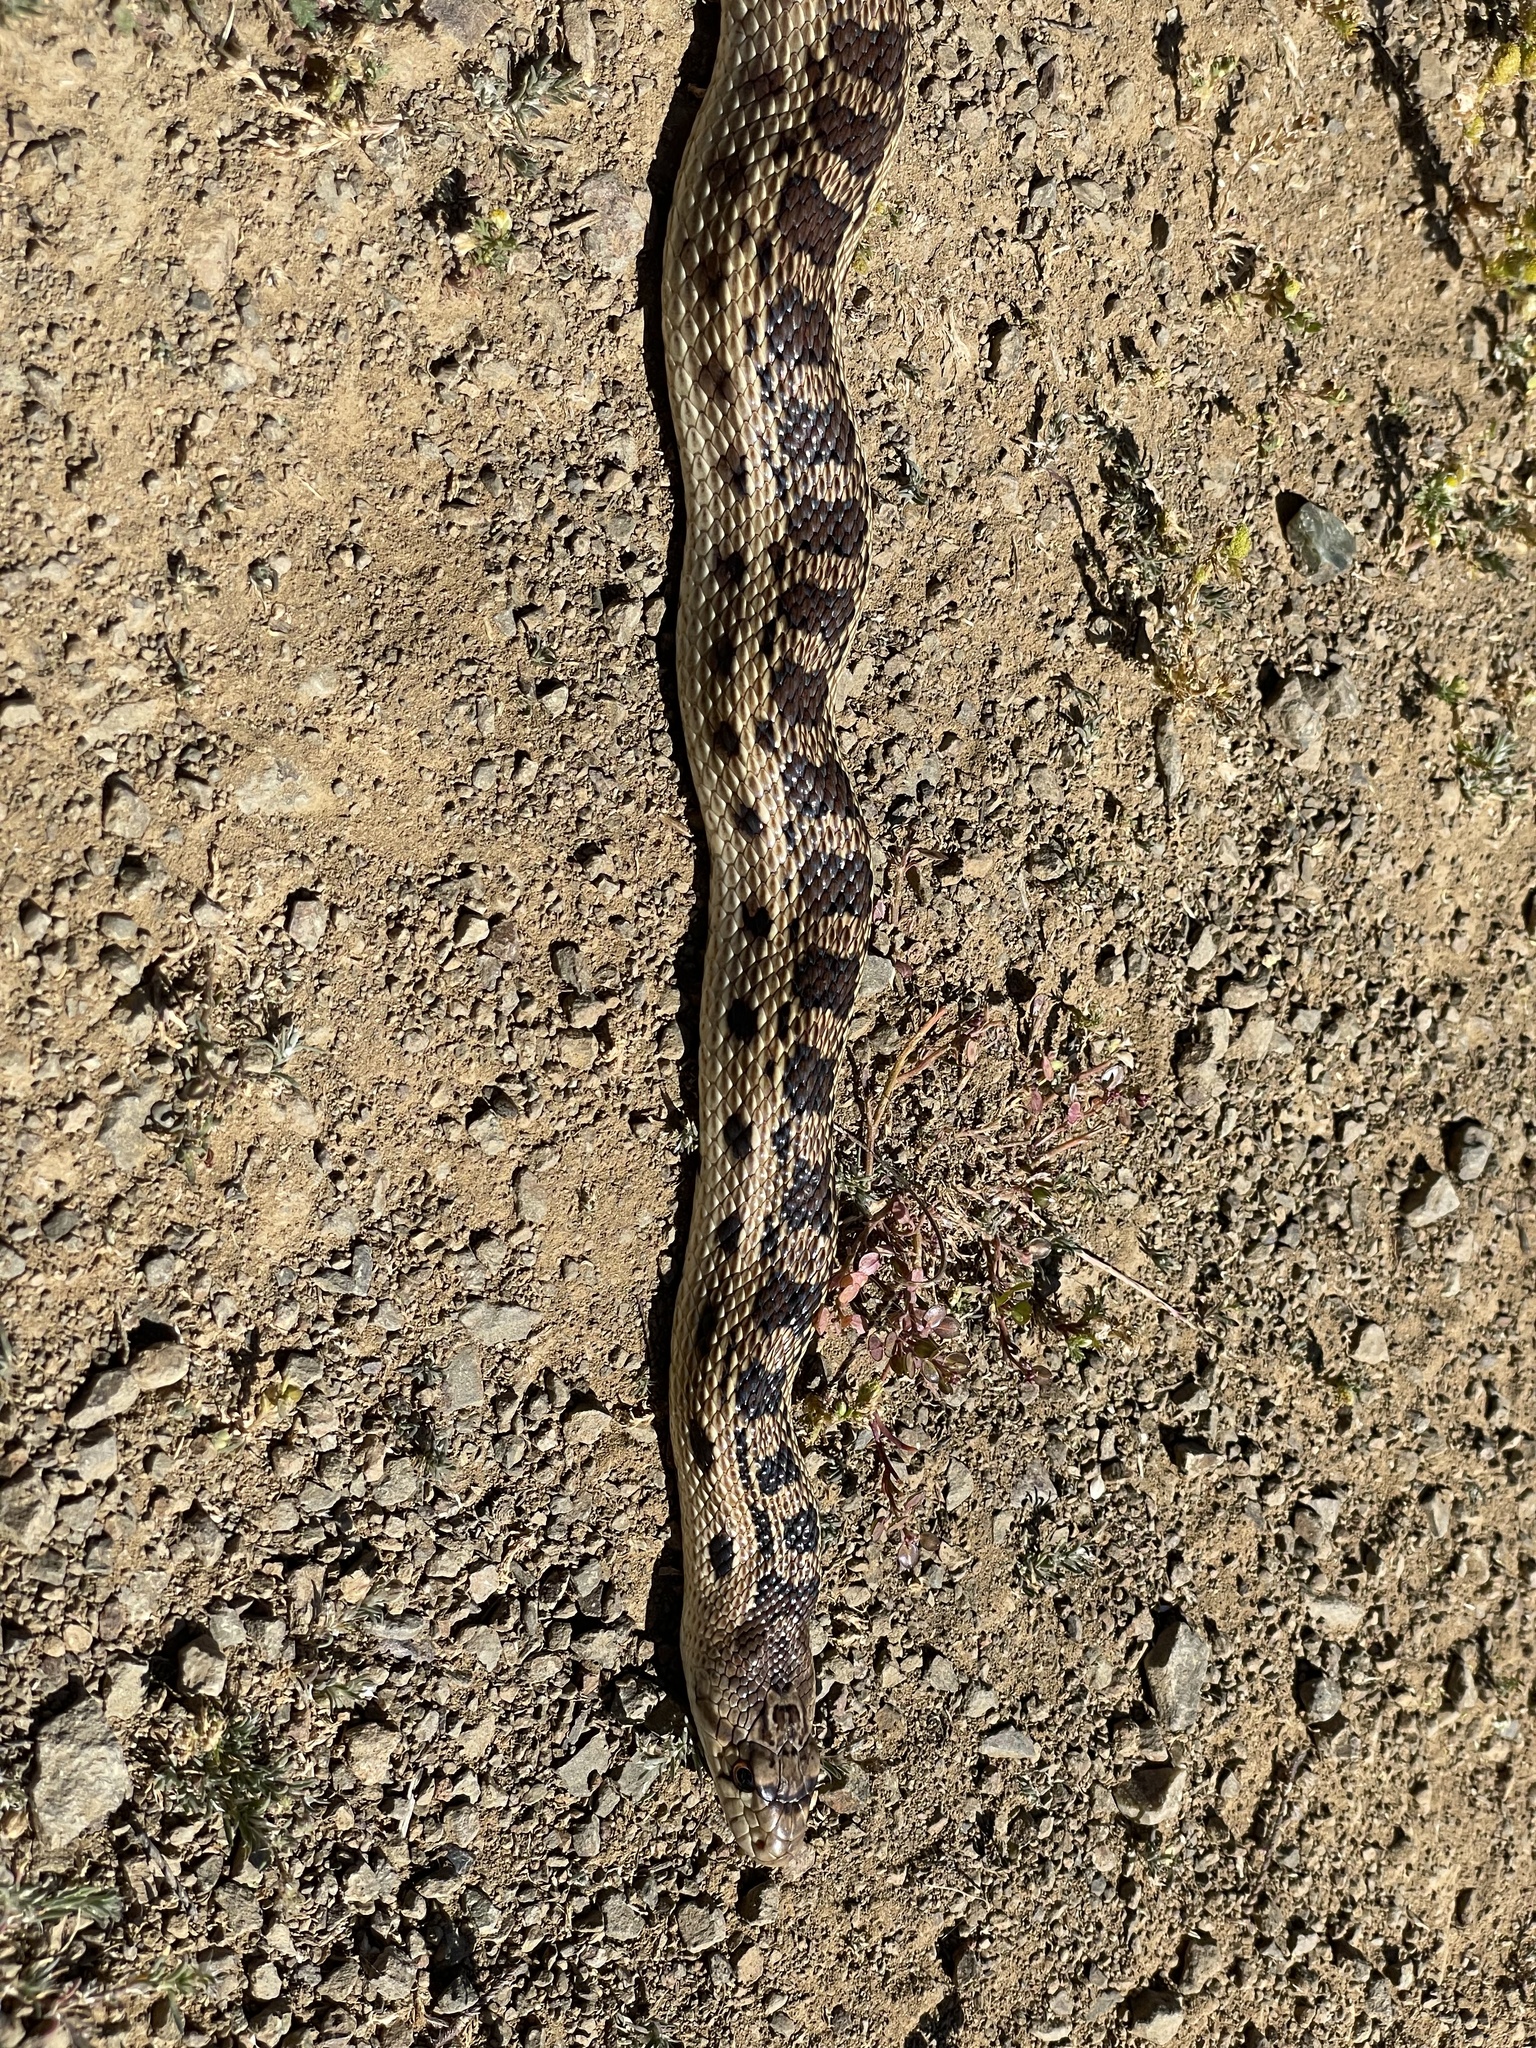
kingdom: Animalia
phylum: Chordata
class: Squamata
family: Colubridae
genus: Pituophis
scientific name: Pituophis catenifer
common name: Gopher snake
